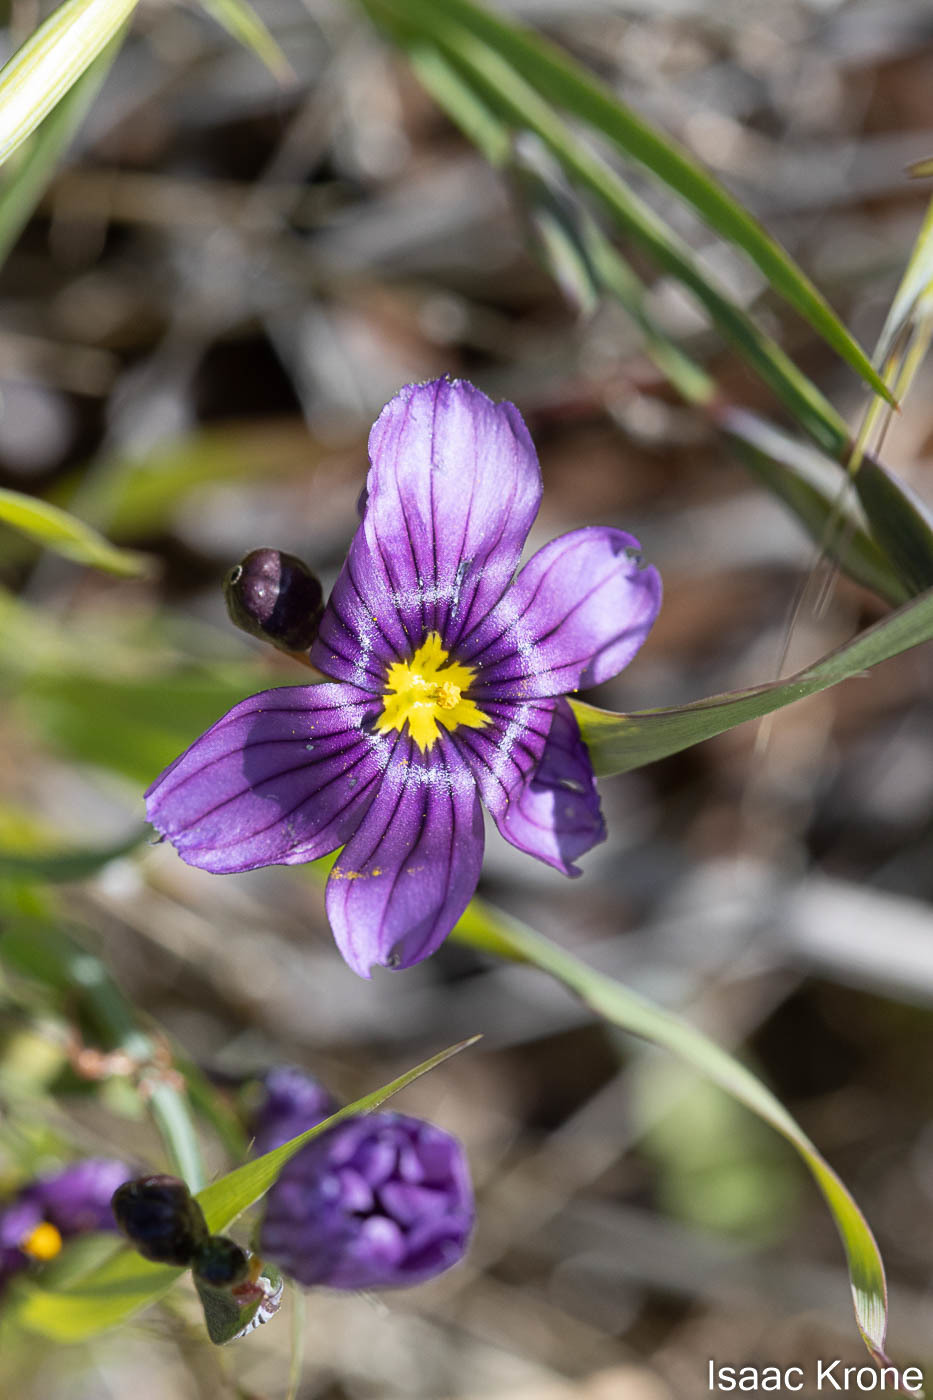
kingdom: Plantae
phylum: Tracheophyta
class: Liliopsida
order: Asparagales
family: Iridaceae
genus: Sisyrinchium
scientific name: Sisyrinchium bellum
